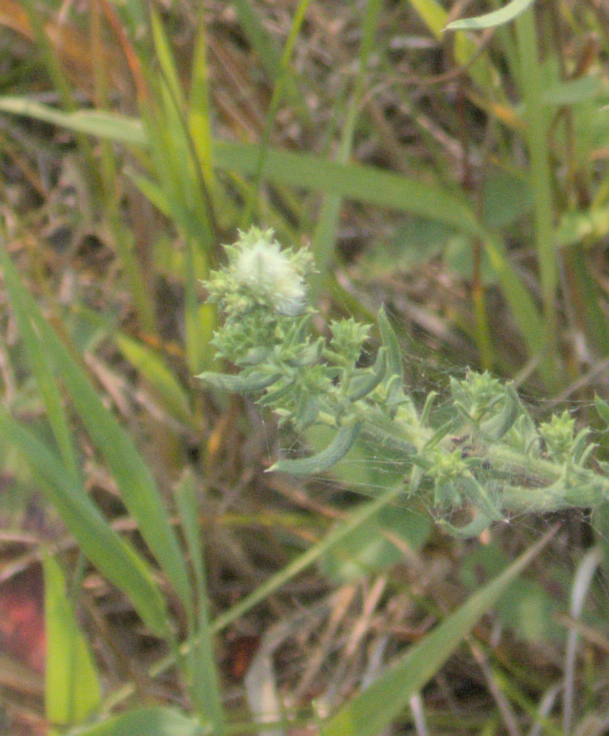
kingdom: Animalia
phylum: Arthropoda
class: Insecta
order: Diptera
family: Cecidomyiidae
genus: Rhopalomyia
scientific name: Rhopalomyia gemmaria
